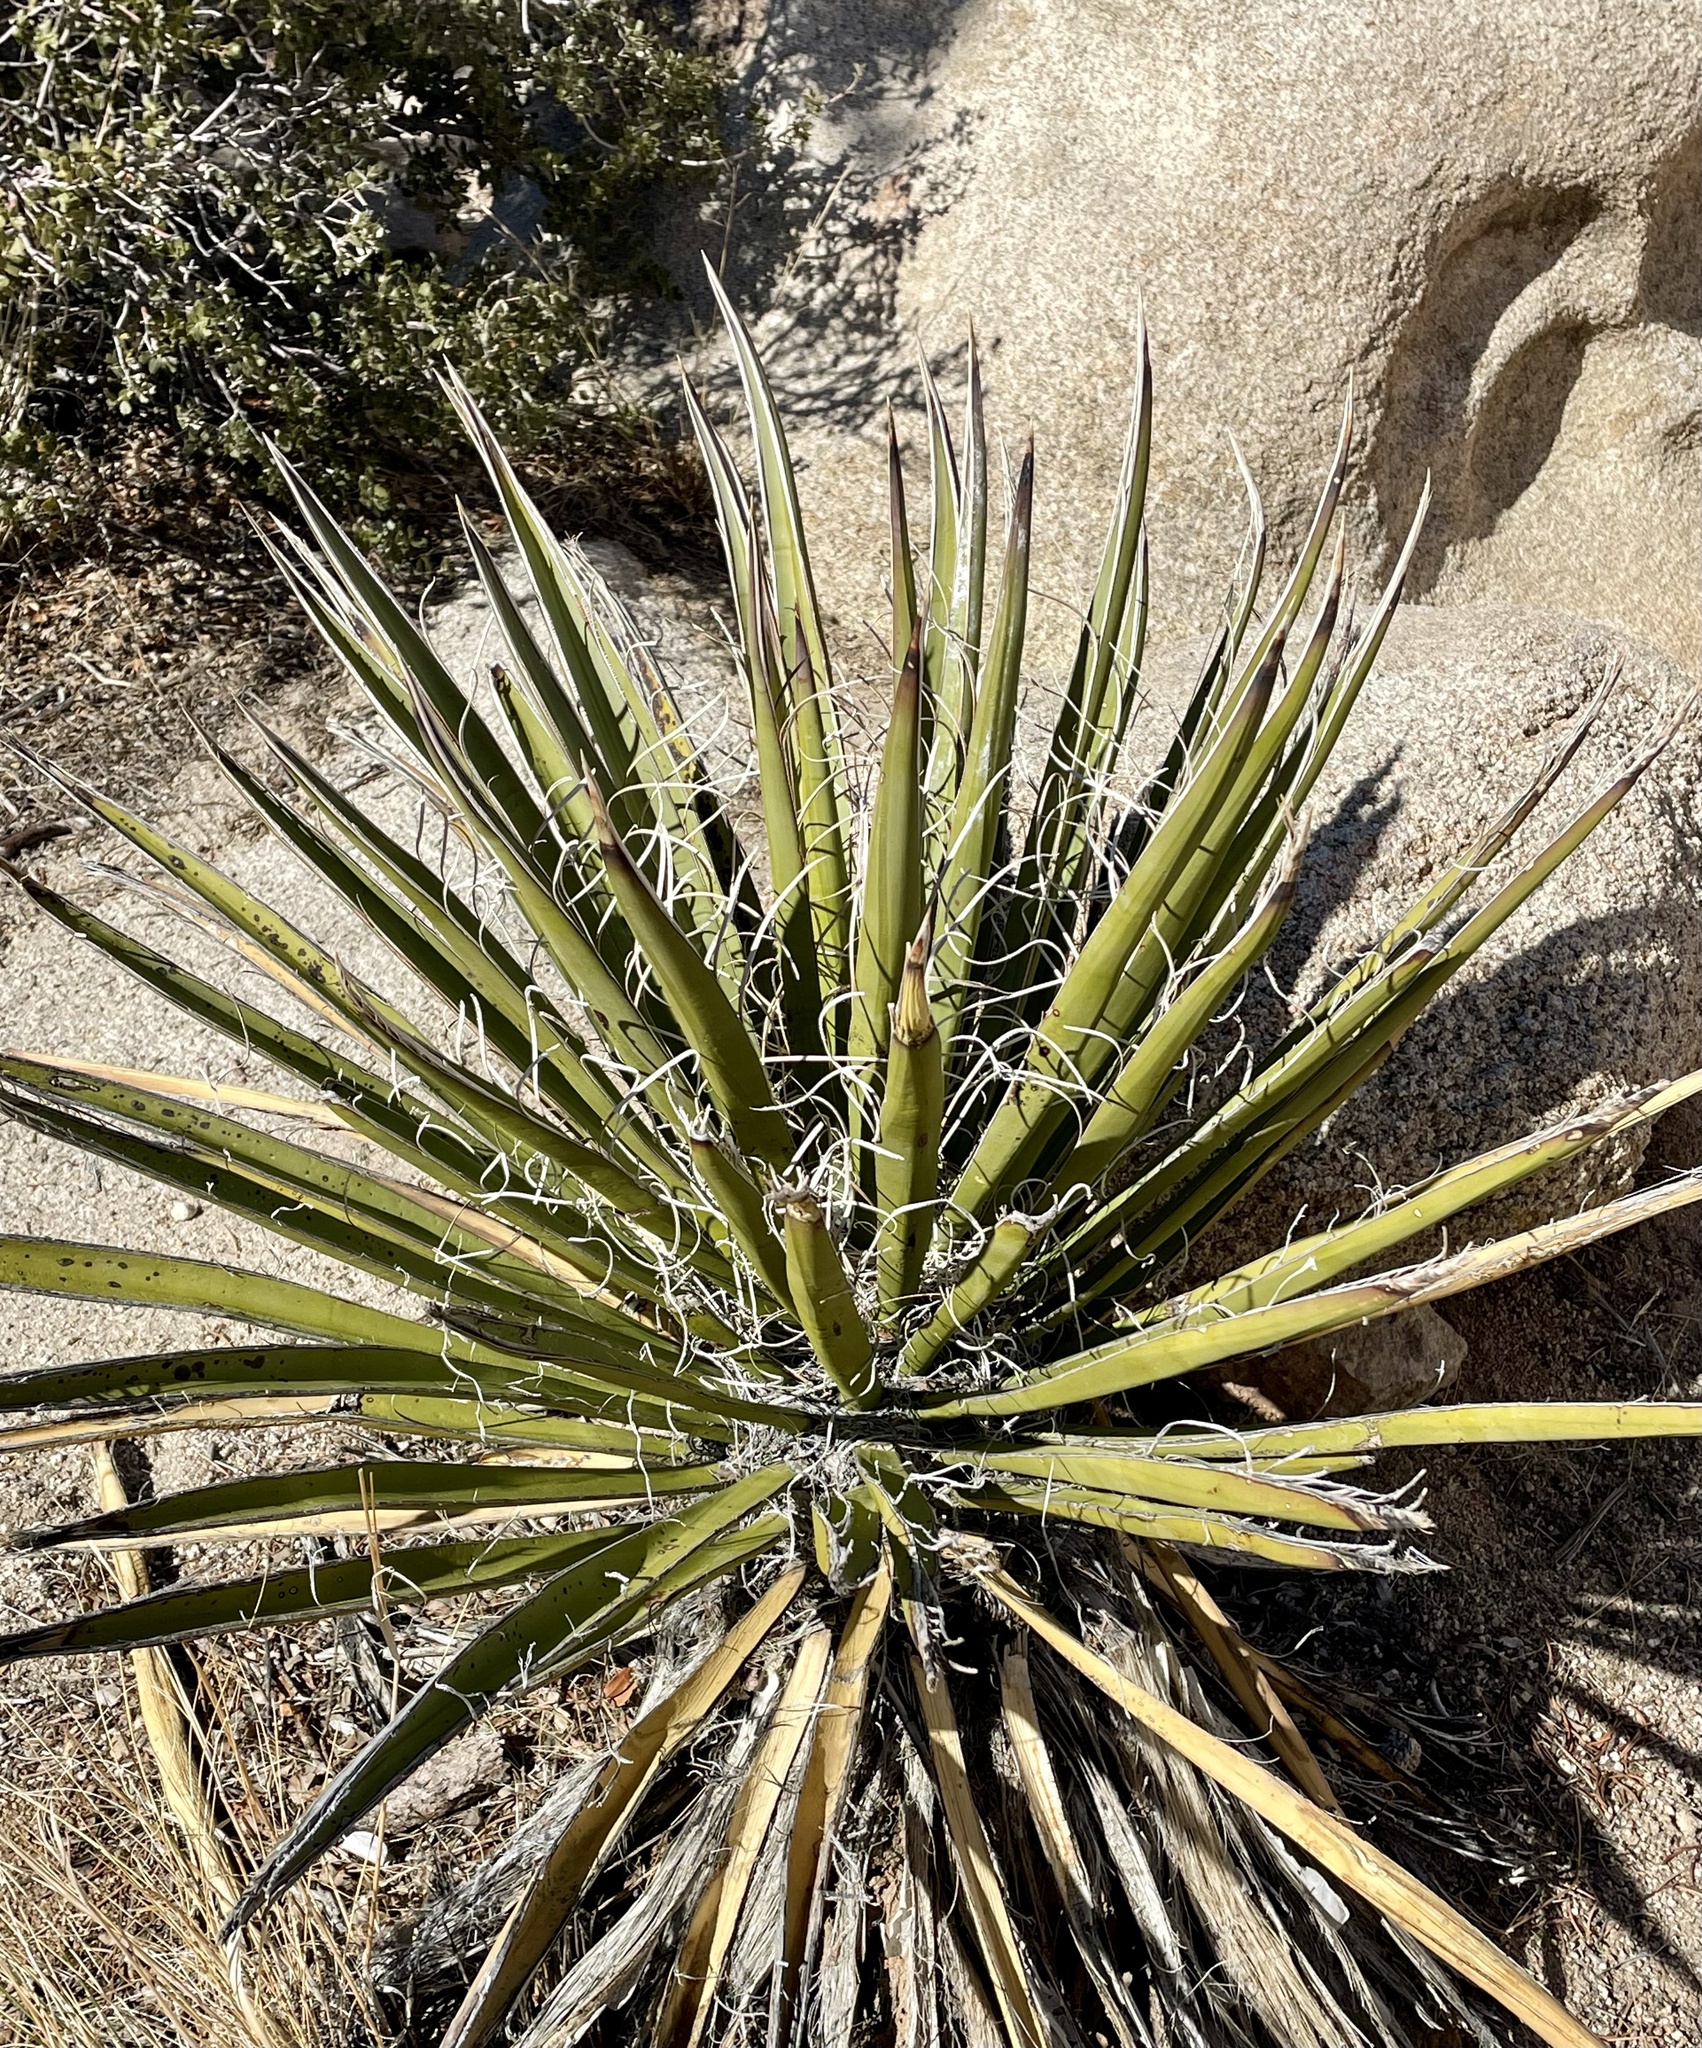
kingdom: Plantae
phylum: Tracheophyta
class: Liliopsida
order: Asparagales
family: Asparagaceae
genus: Yucca
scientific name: Yucca schidigera
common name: Mojave yucca
